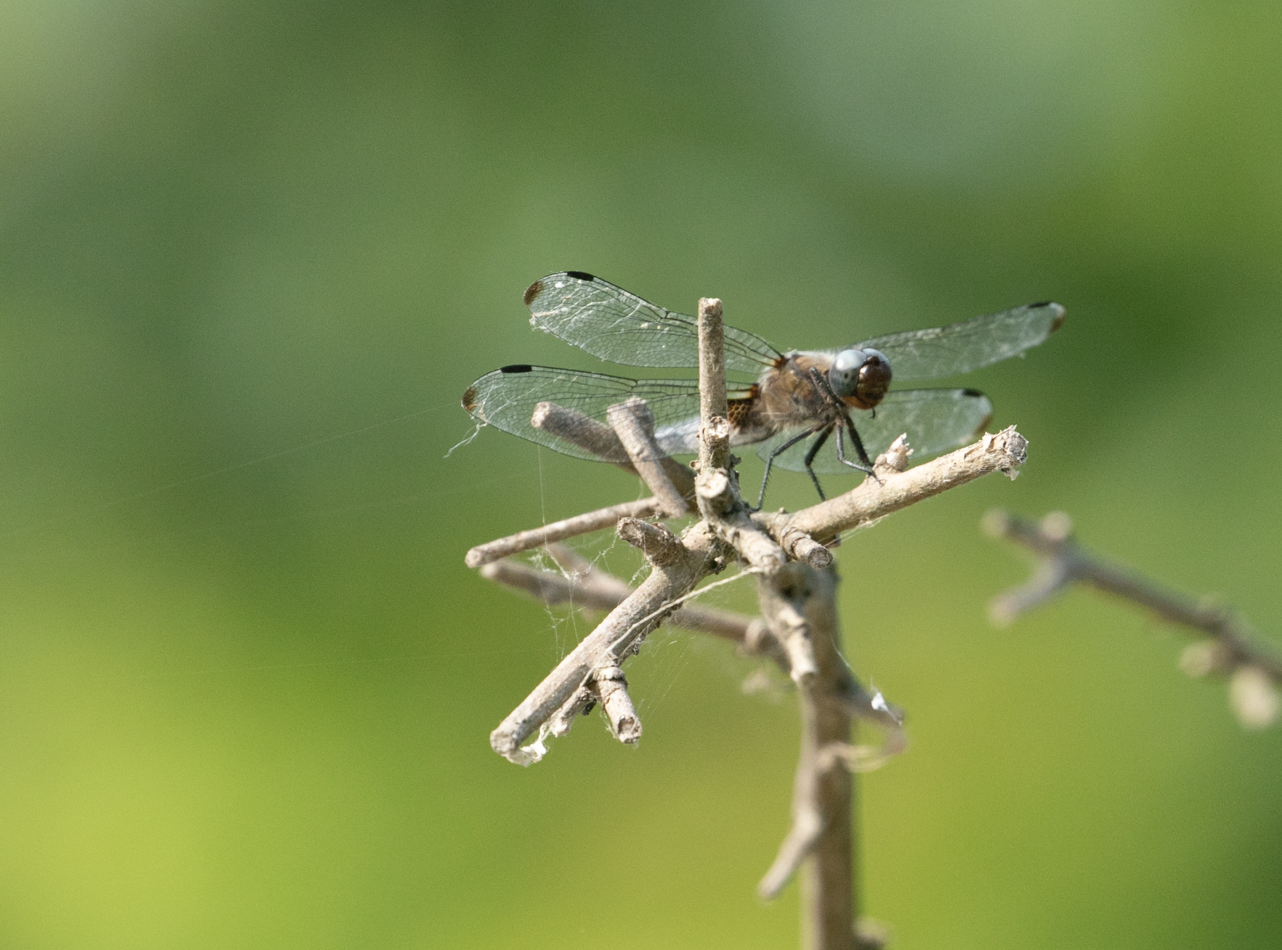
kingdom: Animalia
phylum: Arthropoda
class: Insecta
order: Odonata
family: Libellulidae
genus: Libellula
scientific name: Libellula fulva
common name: Blue chaser
